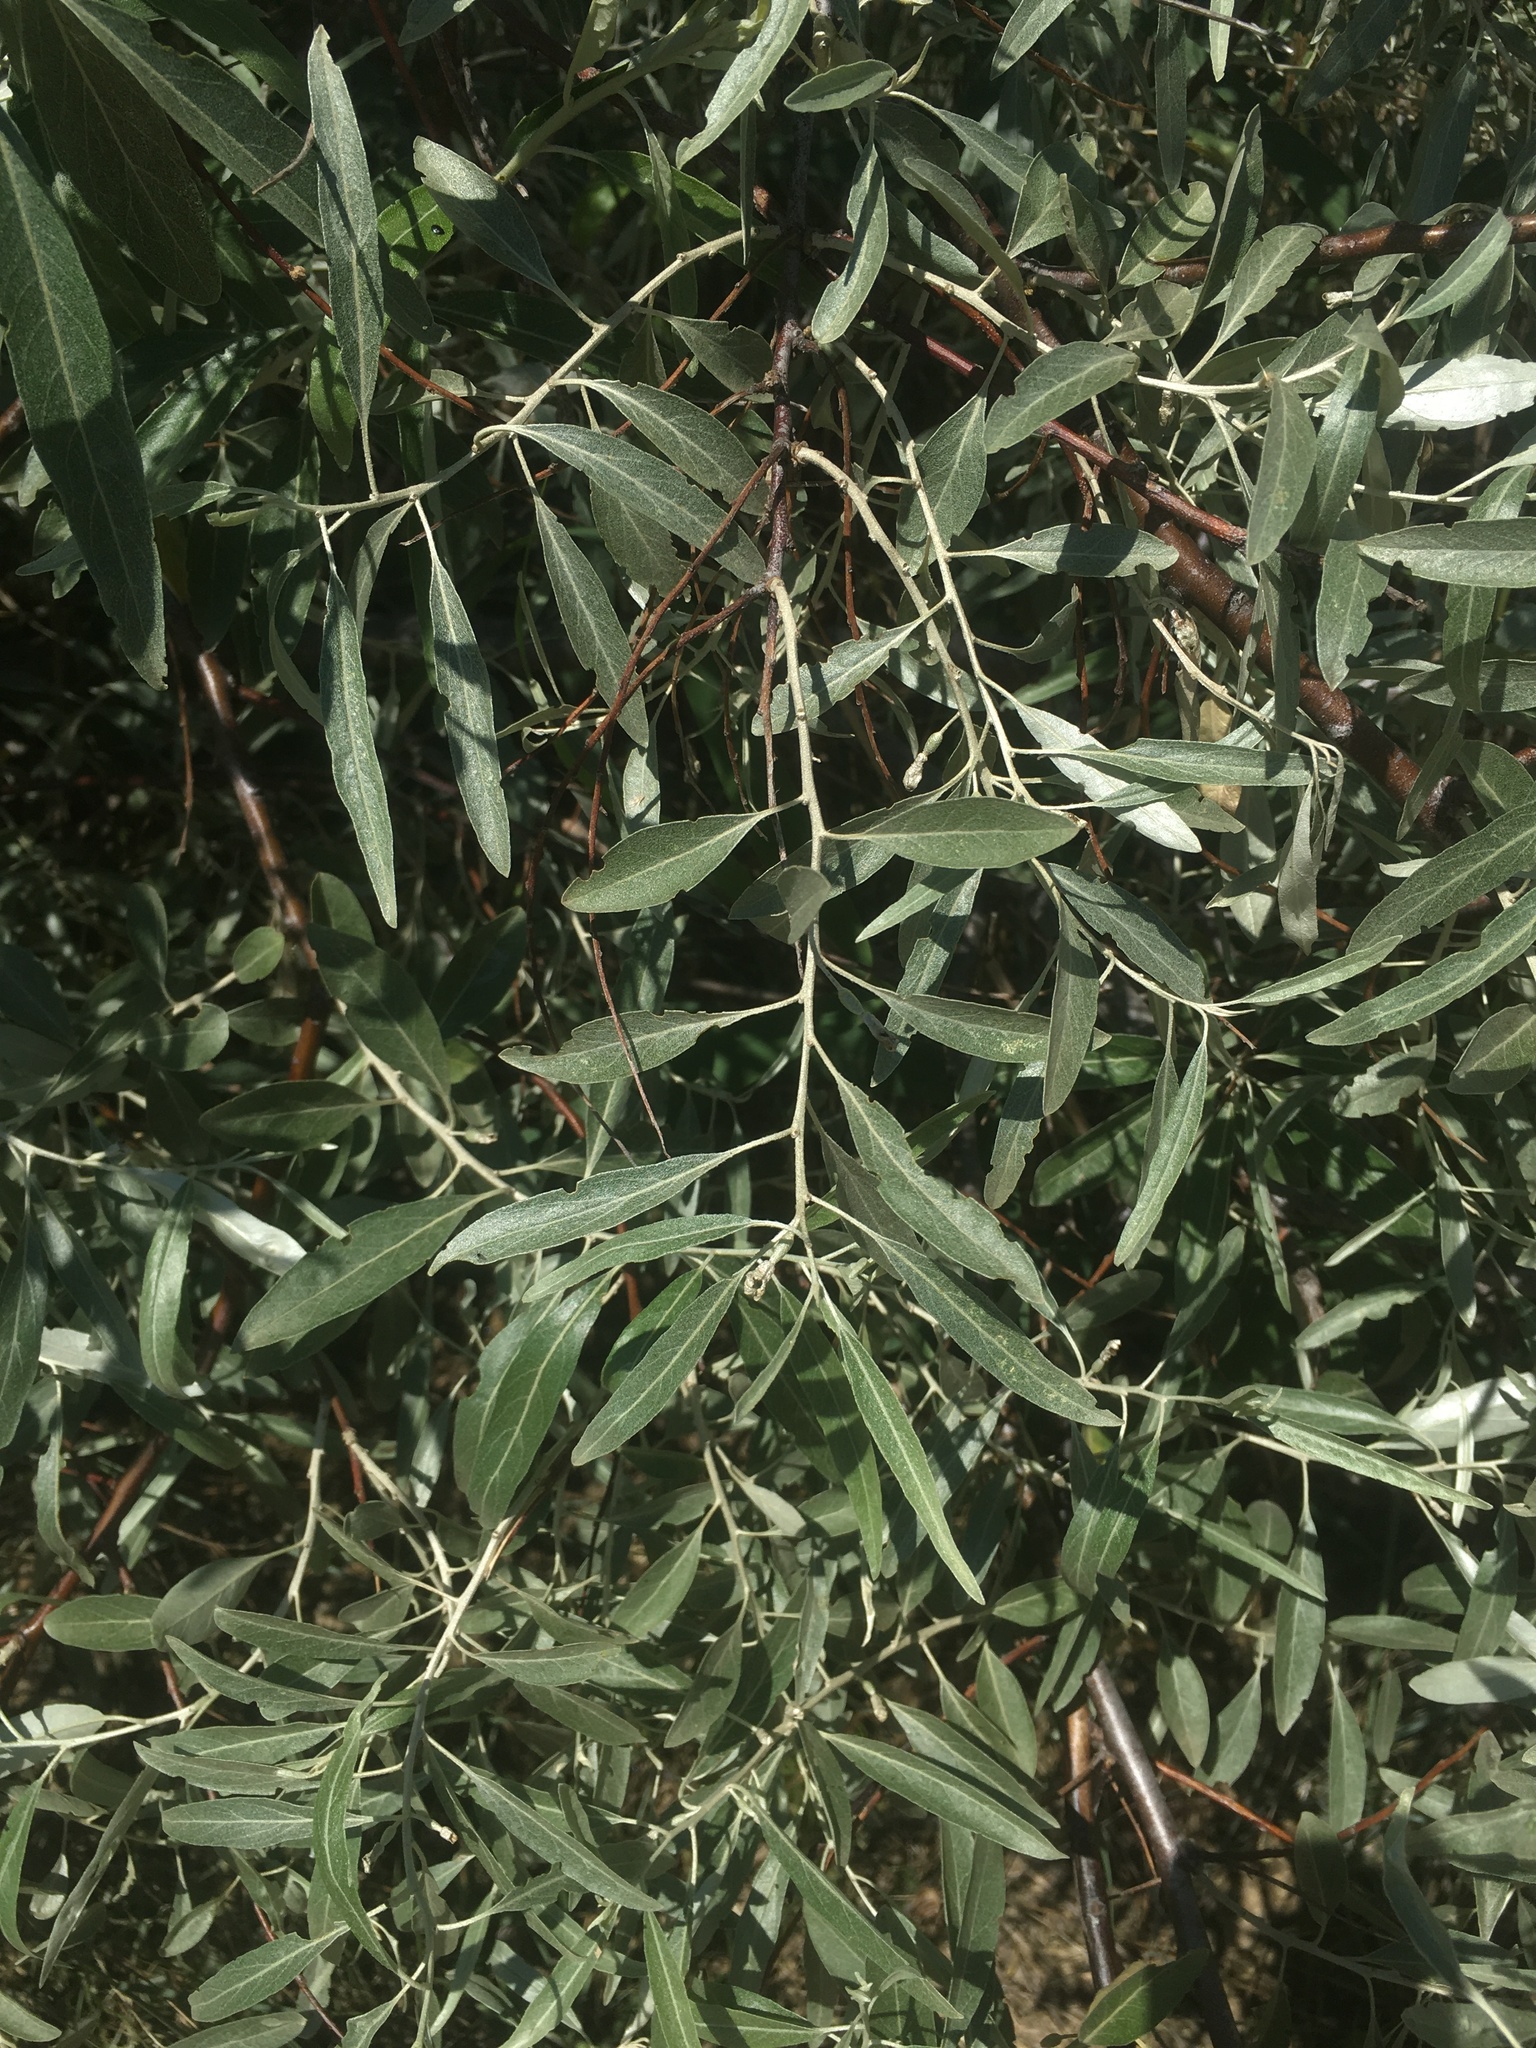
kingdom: Plantae
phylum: Tracheophyta
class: Magnoliopsida
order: Rosales
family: Elaeagnaceae
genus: Elaeagnus
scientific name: Elaeagnus angustifolia
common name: Russian olive
